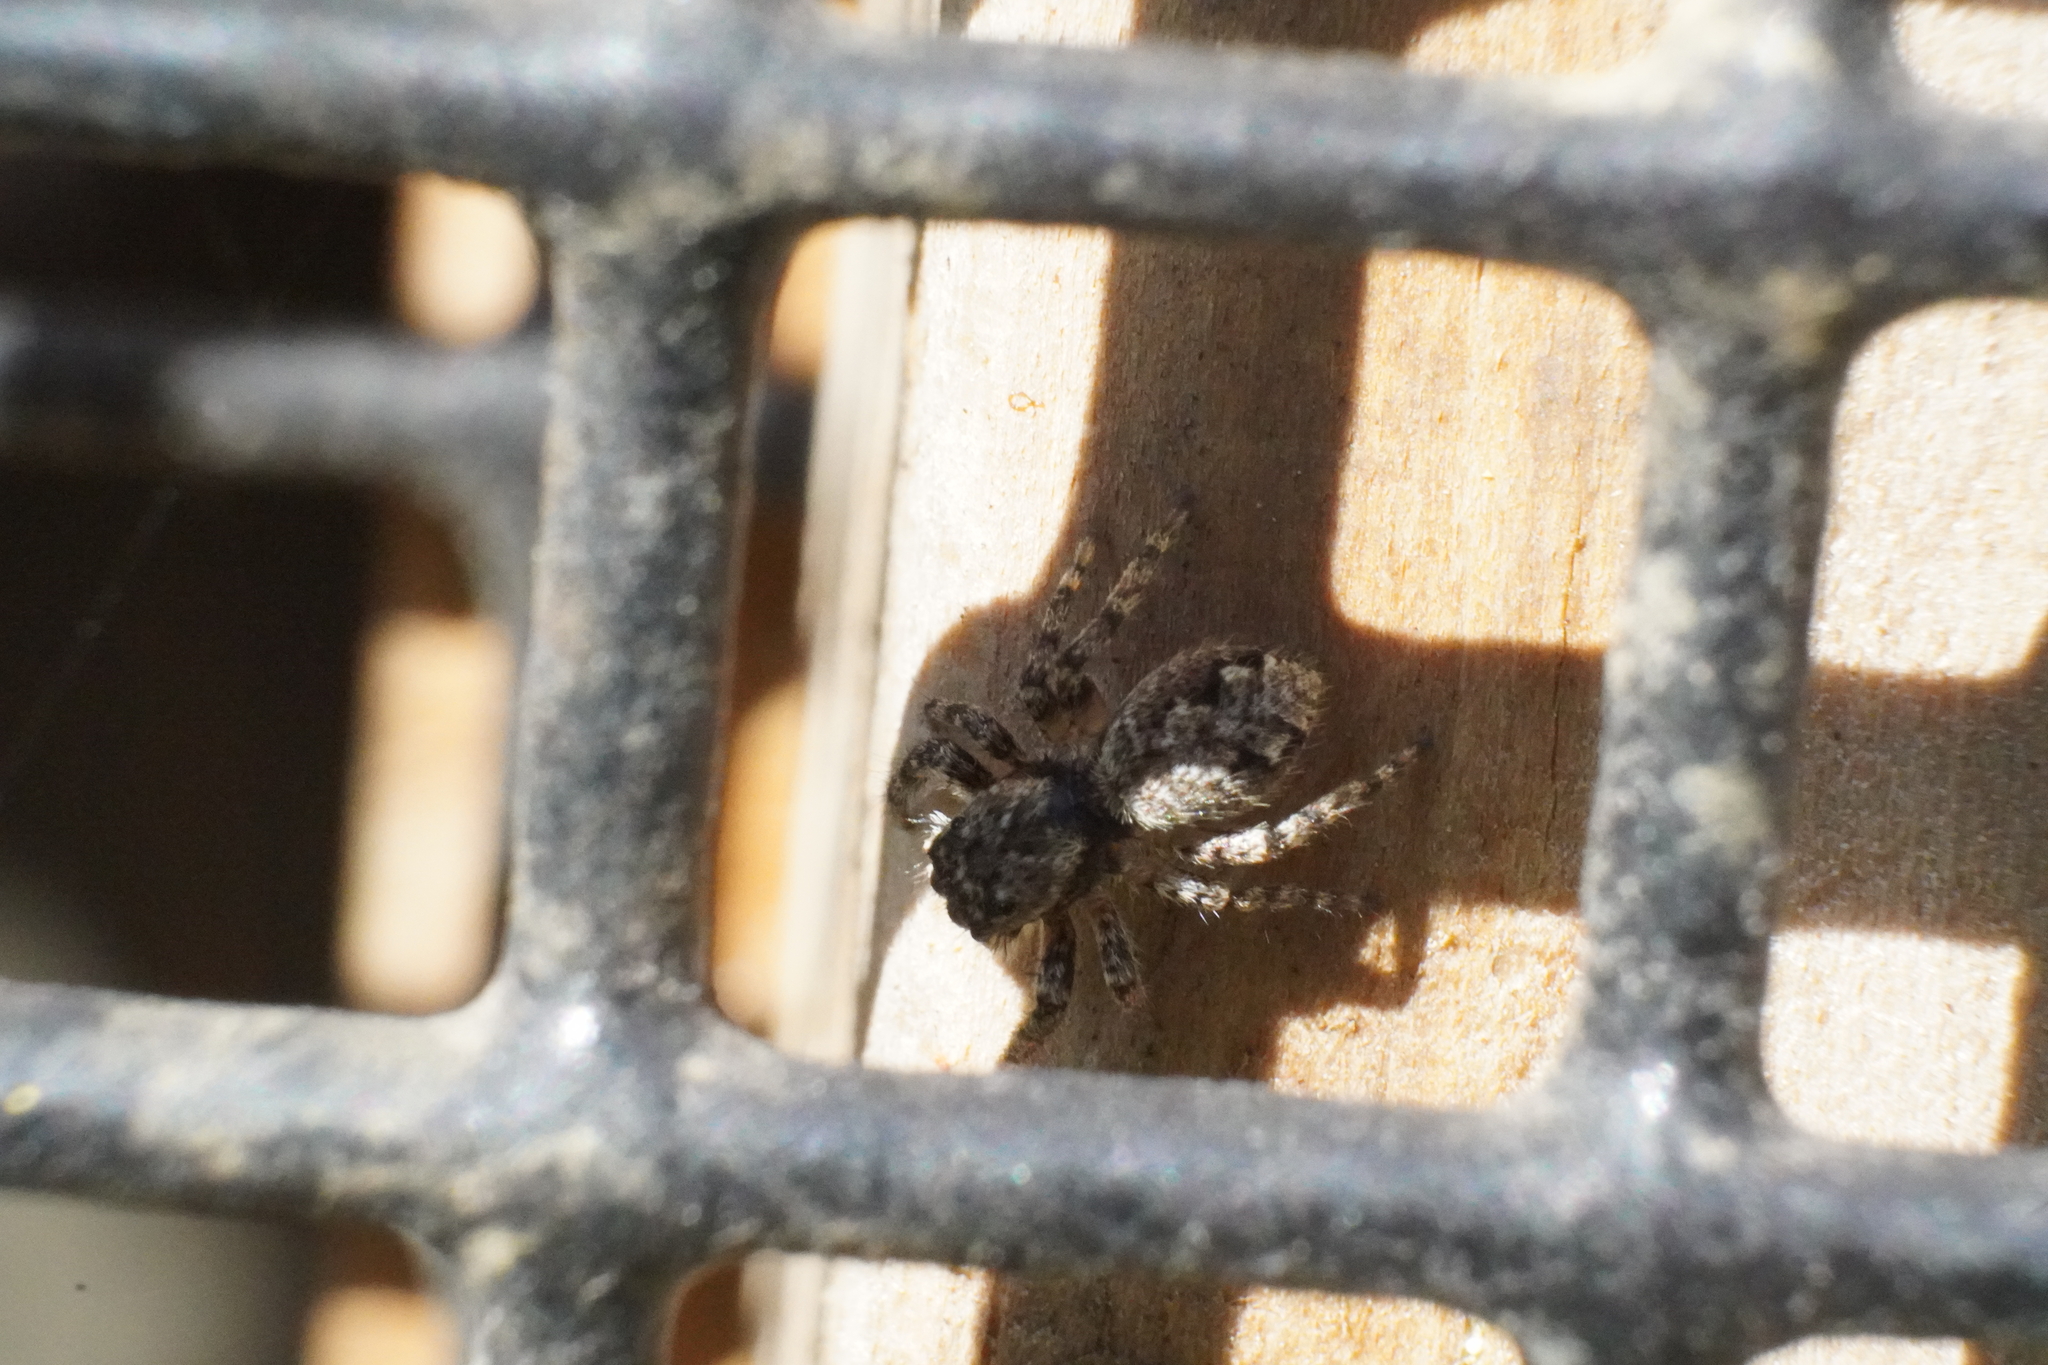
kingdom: Animalia
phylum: Arthropoda
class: Arachnida
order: Araneae
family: Salticidae
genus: Platycryptus
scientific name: Platycryptus undatus
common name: Tan jumping spider
